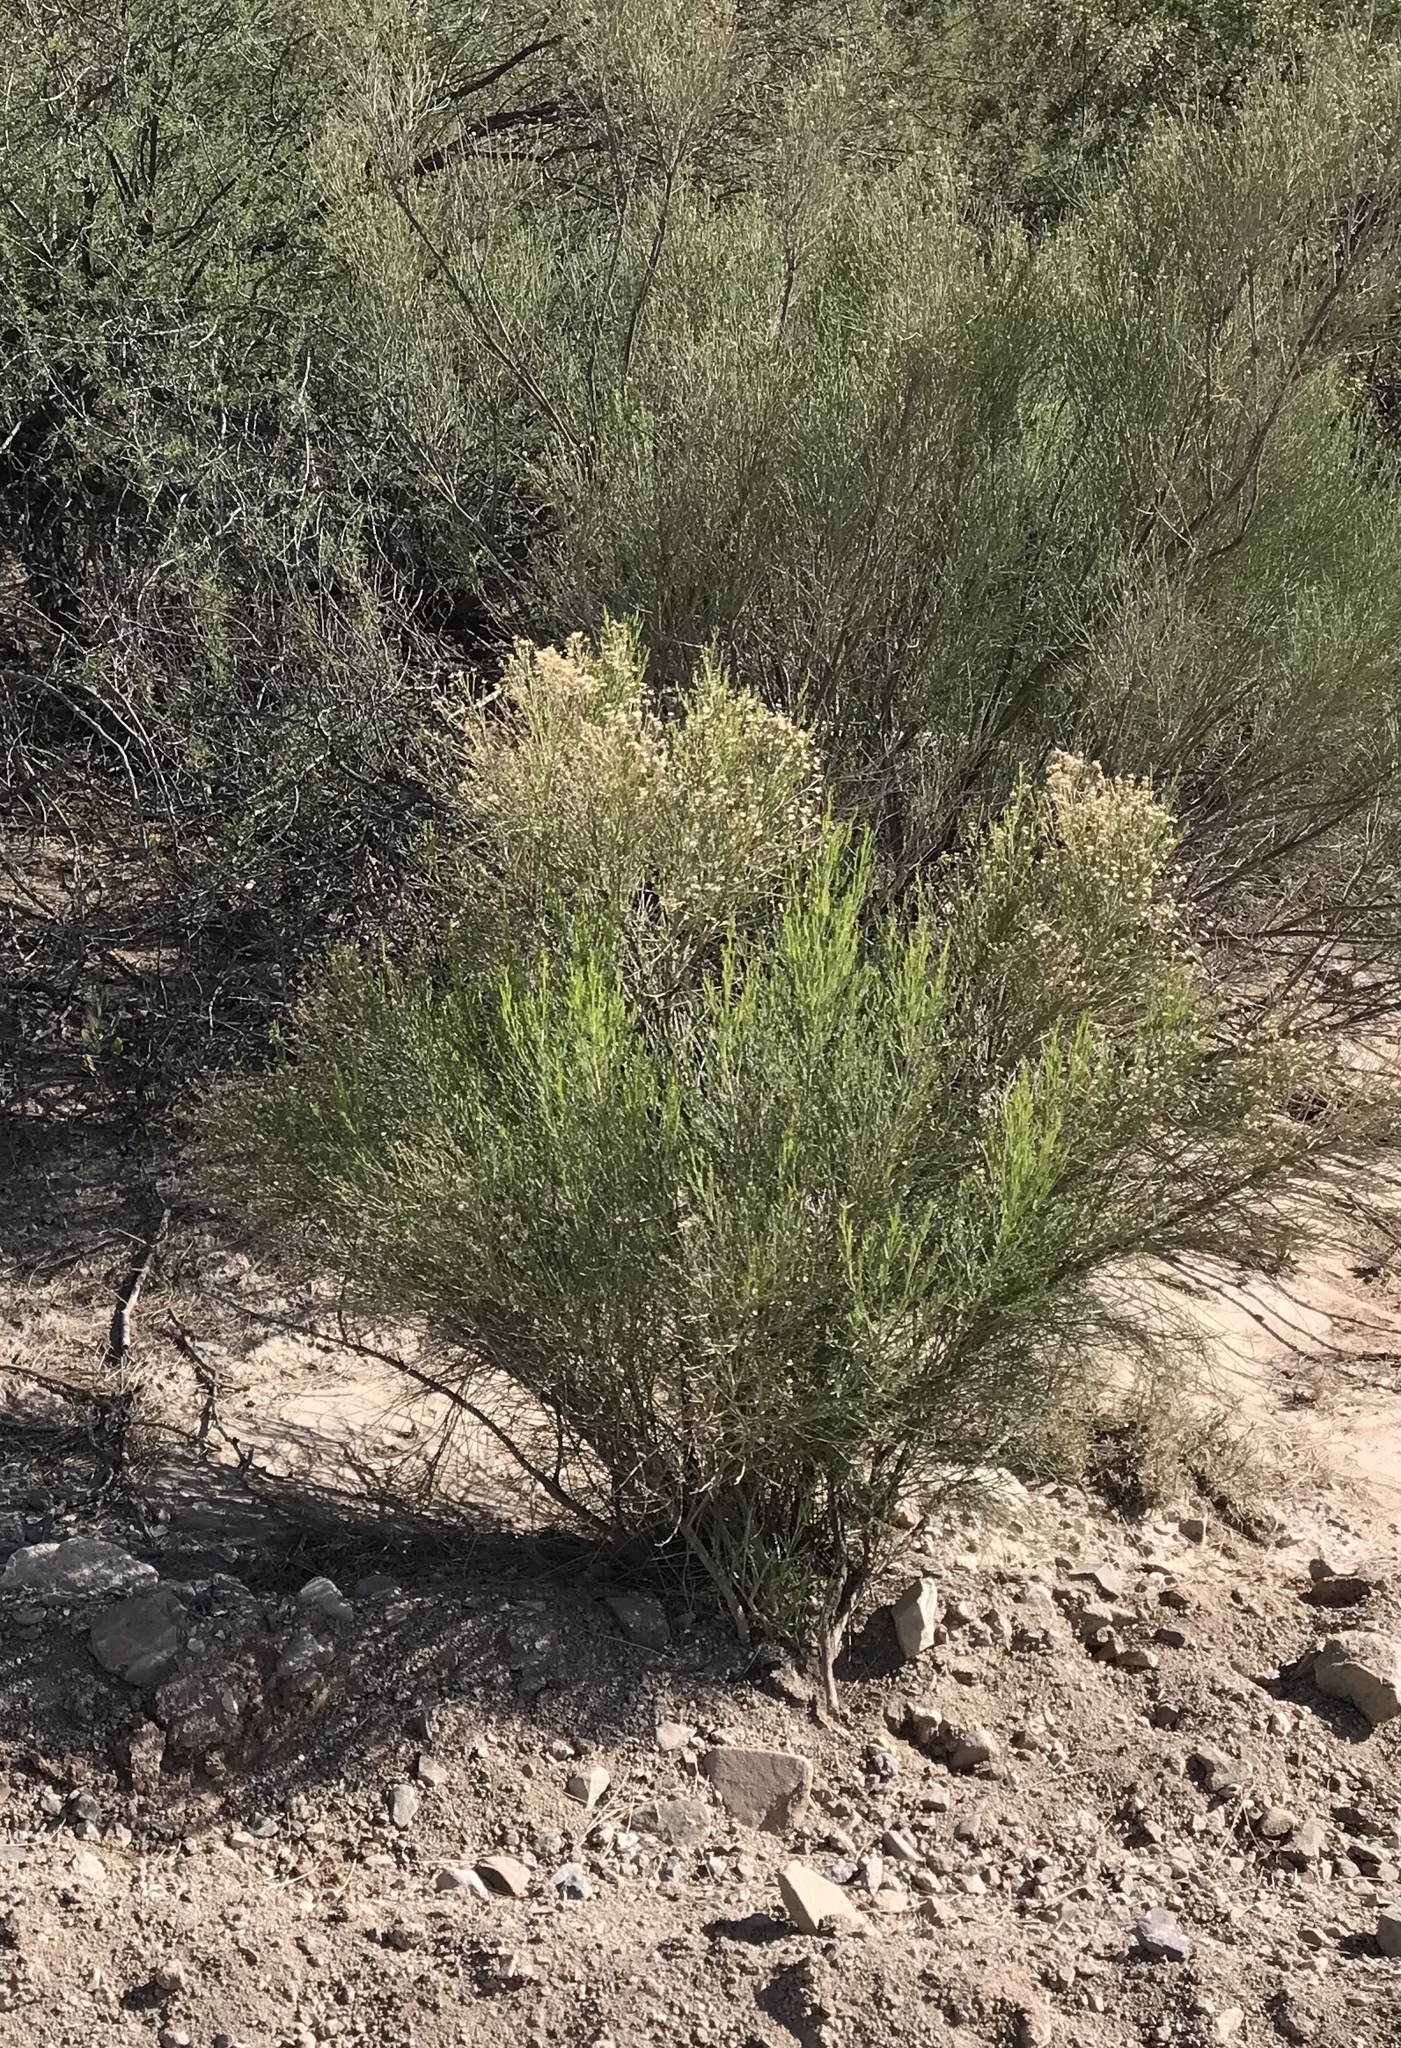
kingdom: Plantae
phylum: Tracheophyta
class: Magnoliopsida
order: Asterales
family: Asteraceae
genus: Baccharis
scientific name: Baccharis sarothroides
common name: Desert-broom
